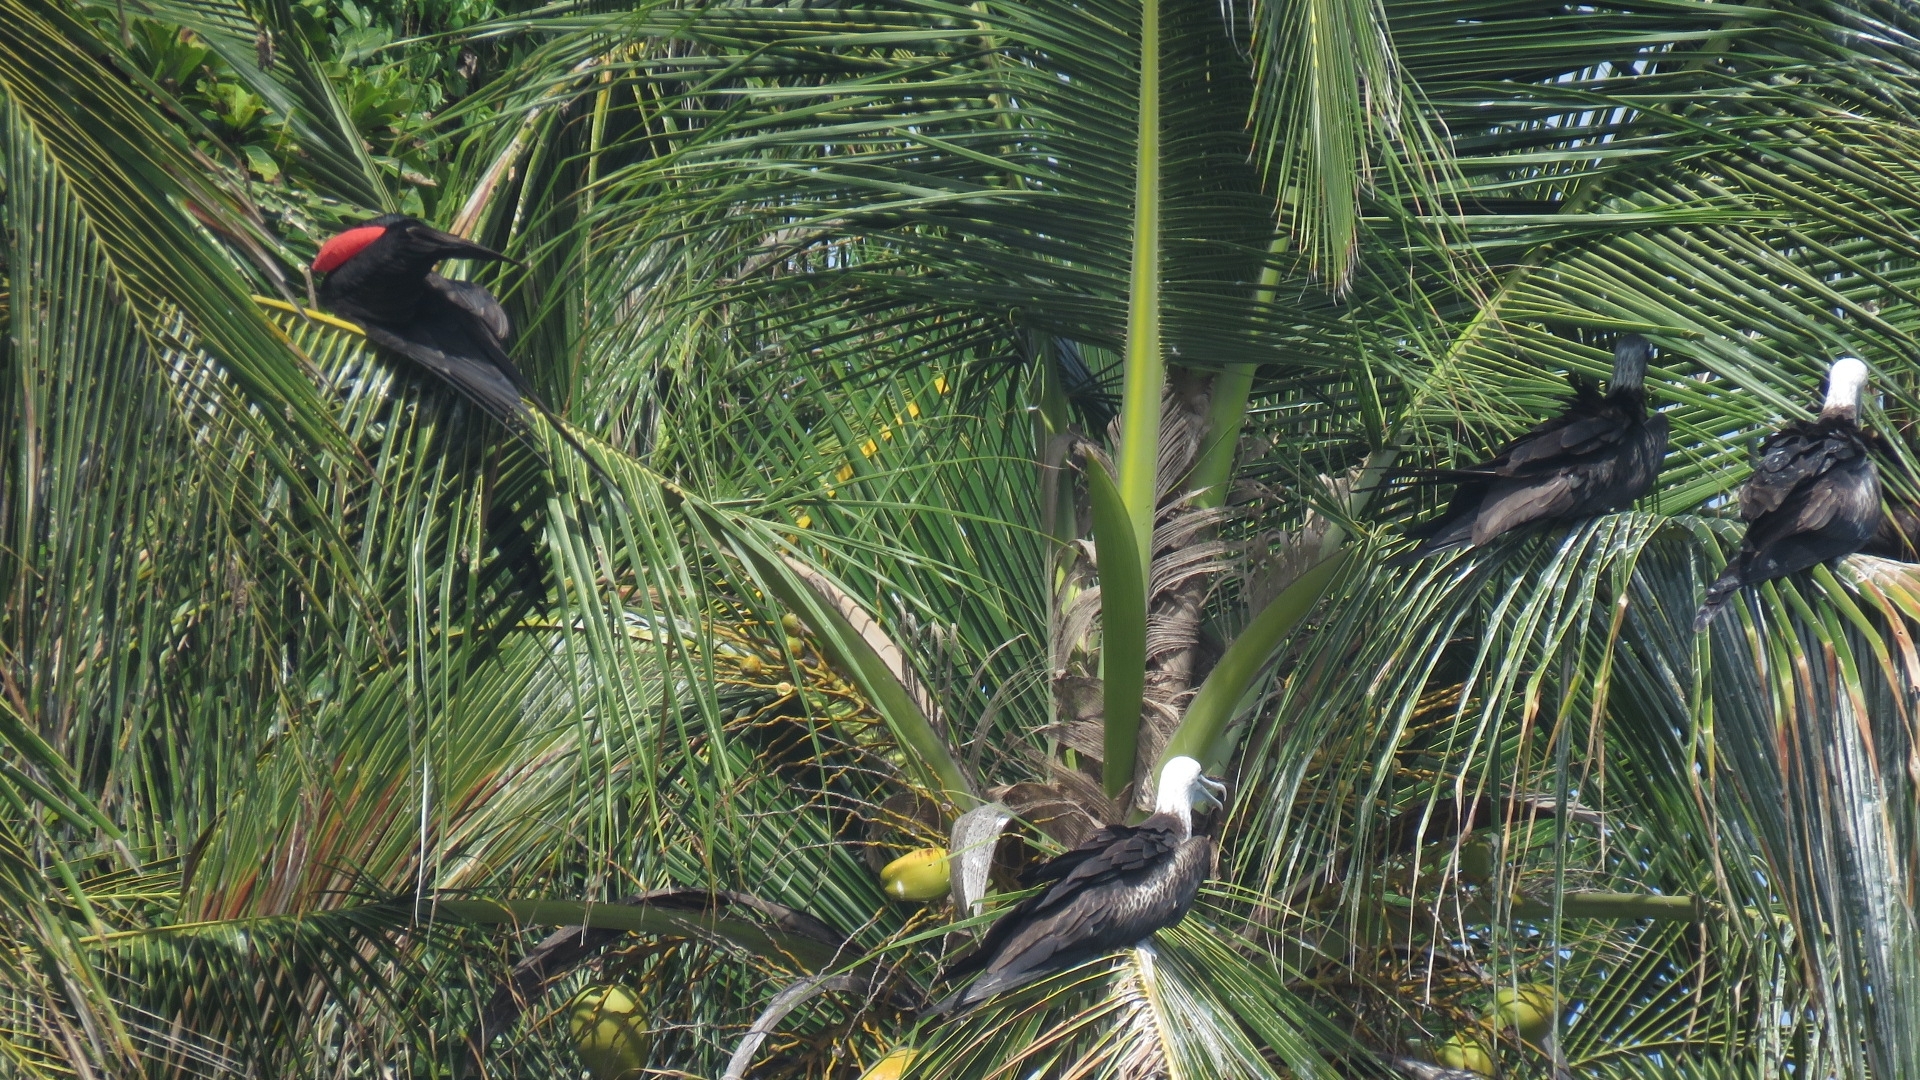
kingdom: Animalia
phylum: Chordata
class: Aves
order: Suliformes
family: Fregatidae
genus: Fregata
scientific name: Fregata magnificens
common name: Magnificent frigatebird
